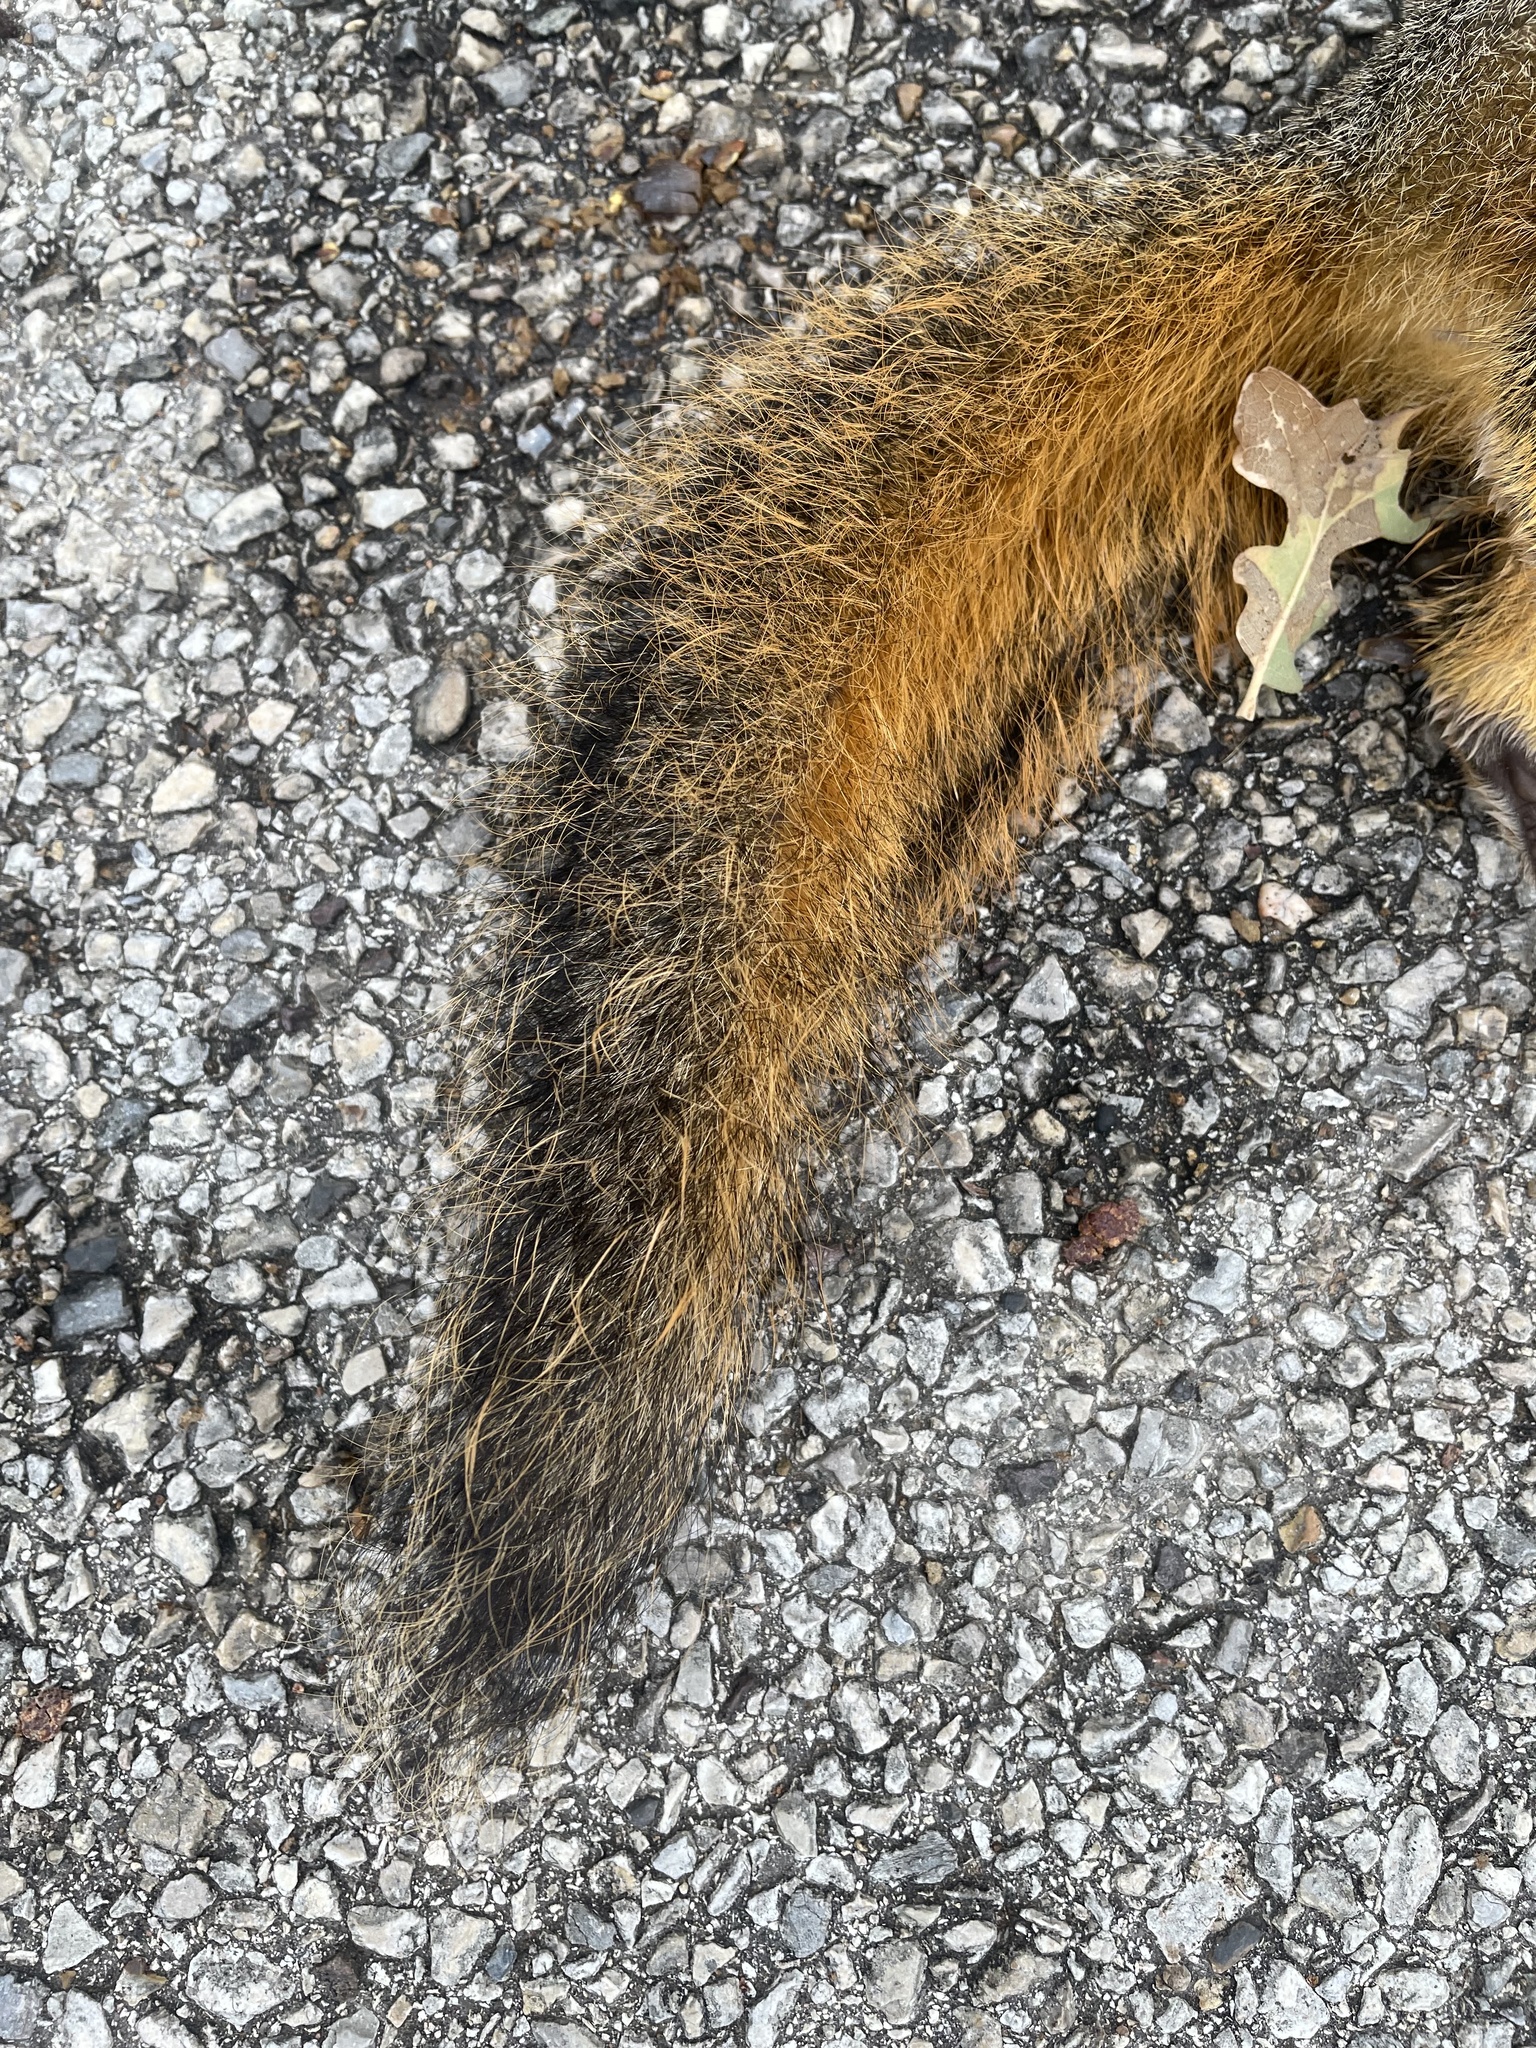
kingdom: Animalia
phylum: Chordata
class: Mammalia
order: Rodentia
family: Sciuridae
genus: Sciurus
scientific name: Sciurus niger
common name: Fox squirrel
